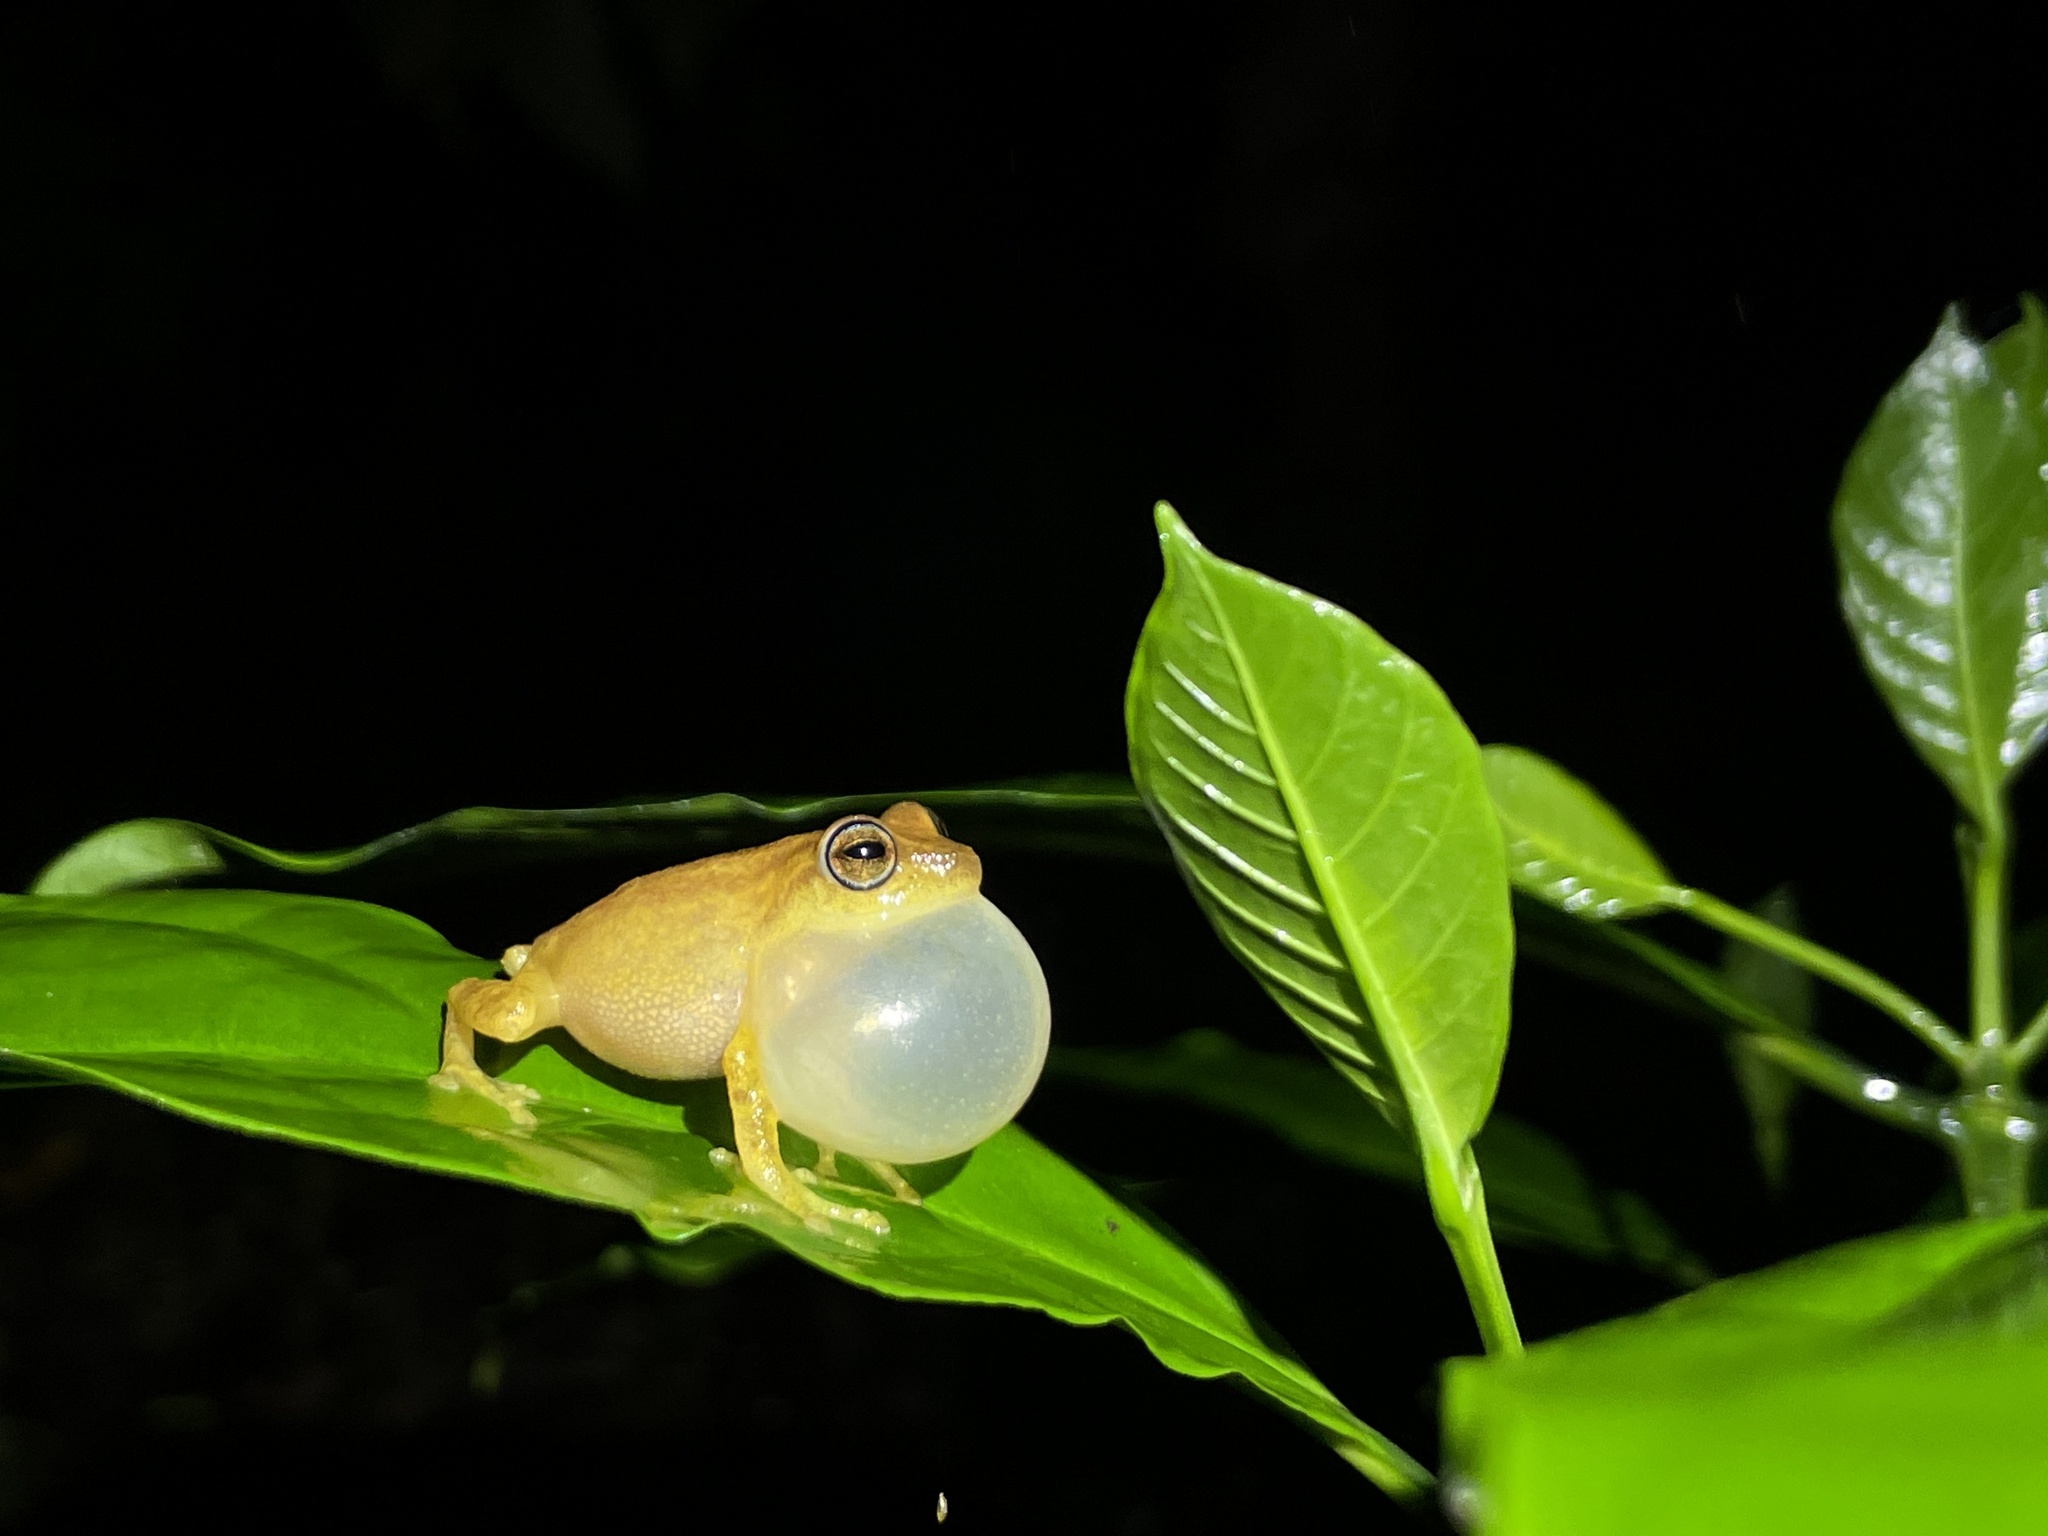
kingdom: Animalia
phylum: Chordata
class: Amphibia
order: Anura
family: Rhacophoridae
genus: Raorchestes
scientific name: Raorchestes luteolus
